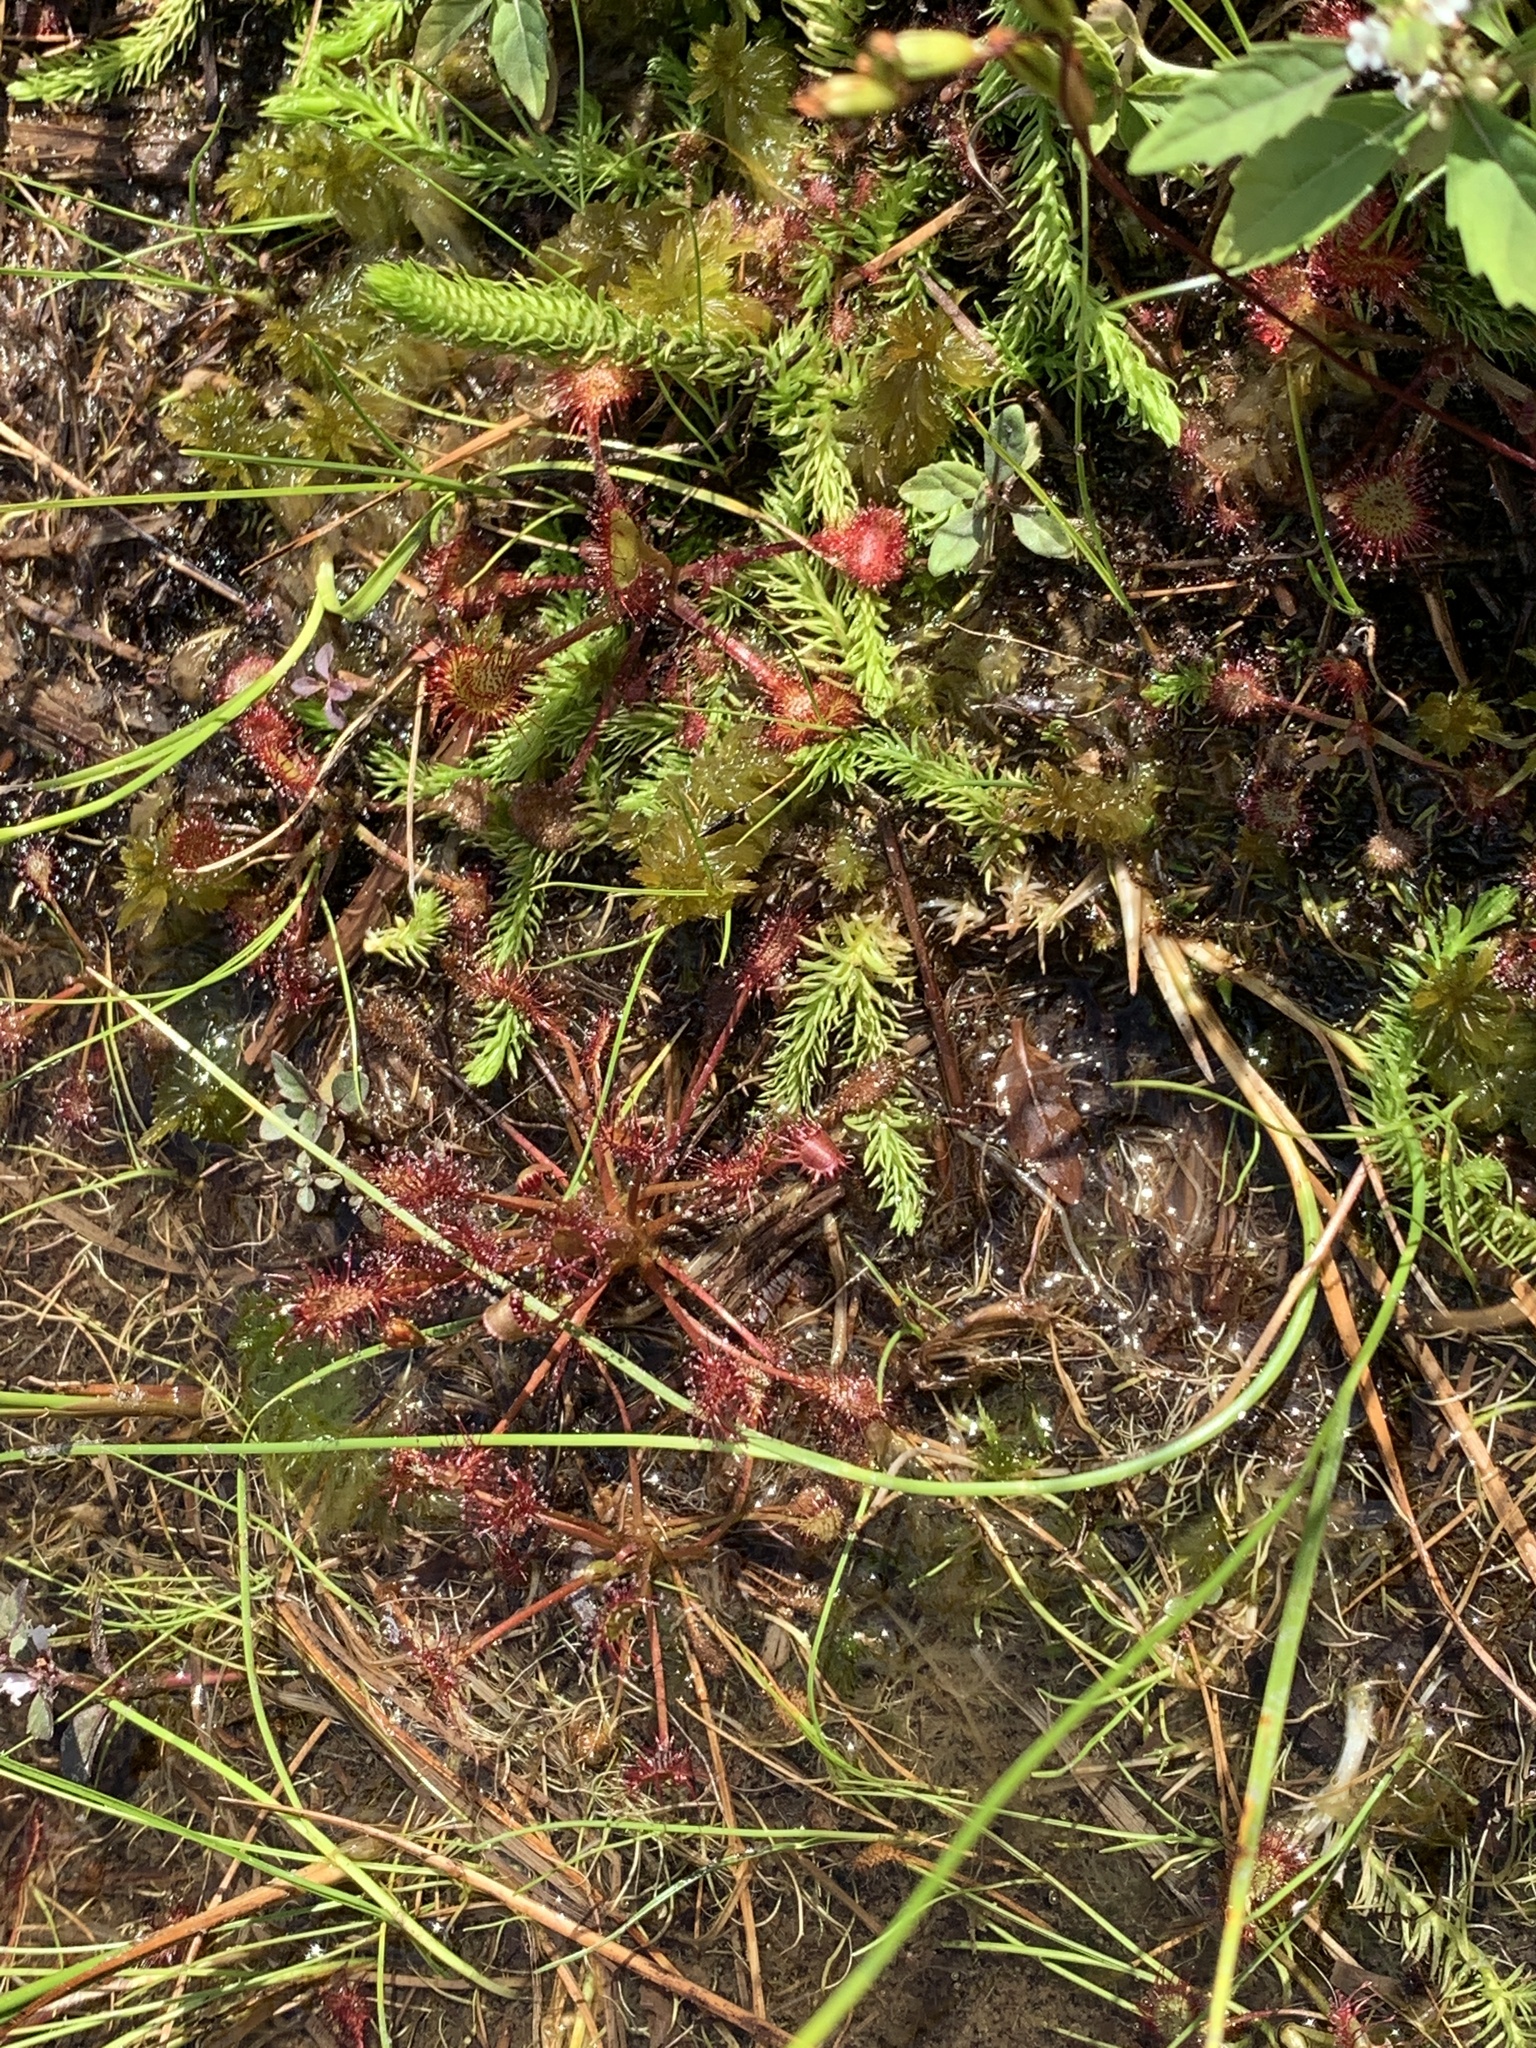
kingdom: Plantae
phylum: Tracheophyta
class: Magnoliopsida
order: Caryophyllales
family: Droseraceae
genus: Drosera
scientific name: Drosera intermedia
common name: Oblong-leaved sundew
